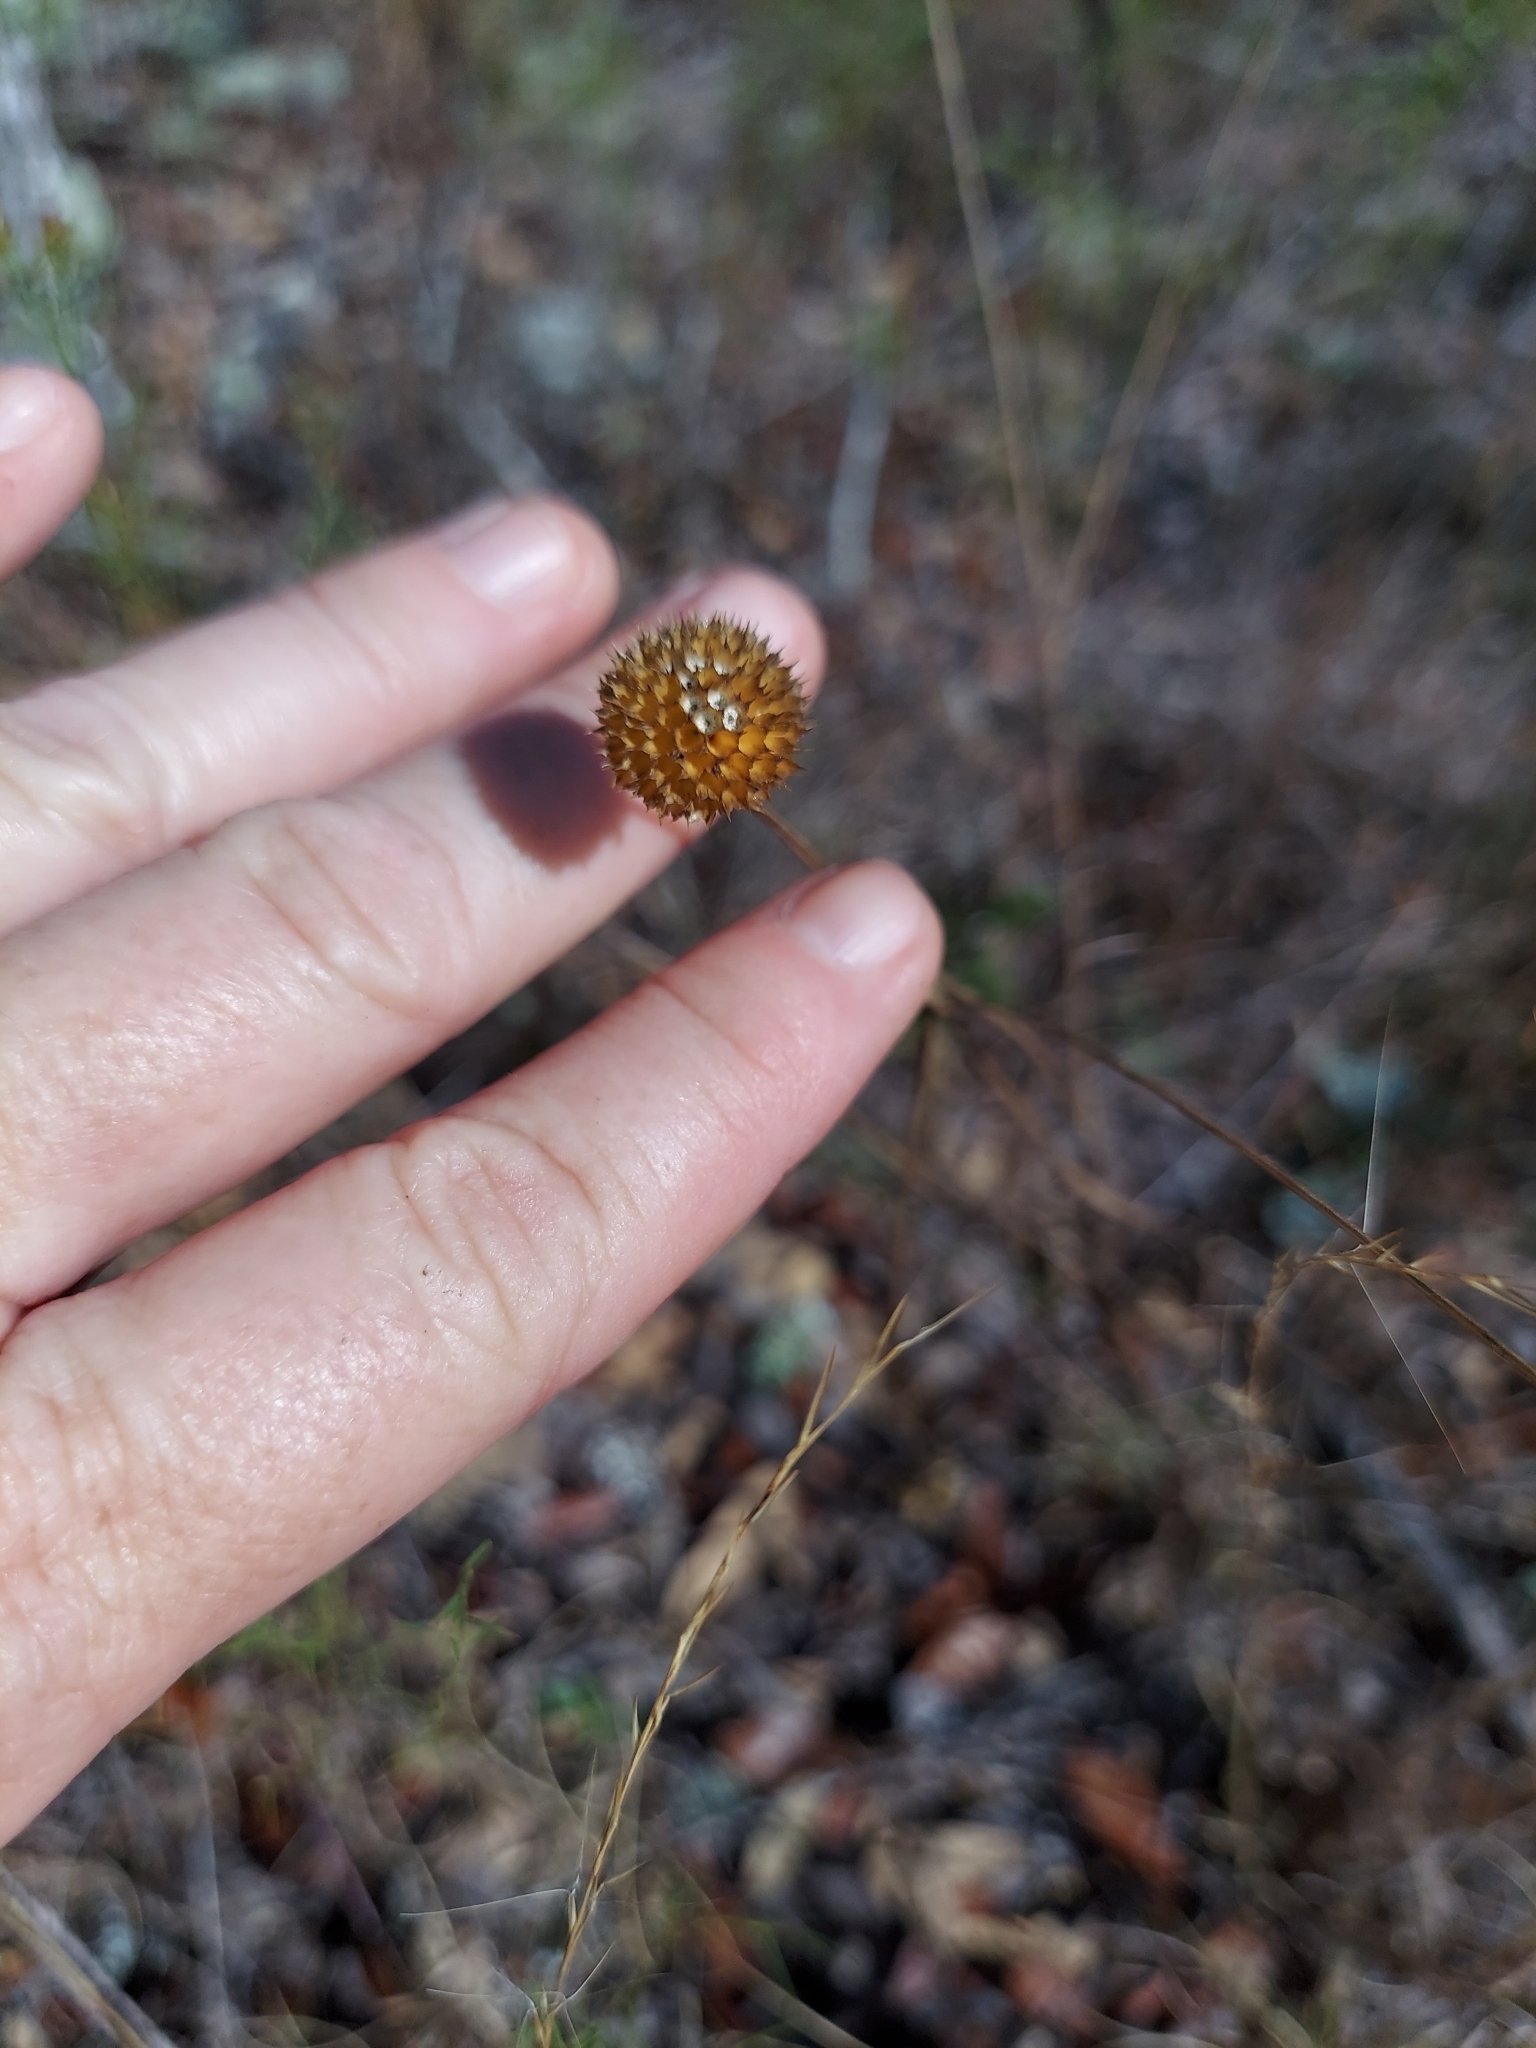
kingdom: Plantae
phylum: Tracheophyta
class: Magnoliopsida
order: Asterales
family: Asteraceae
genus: Balduina
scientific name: Balduina angustifolia
